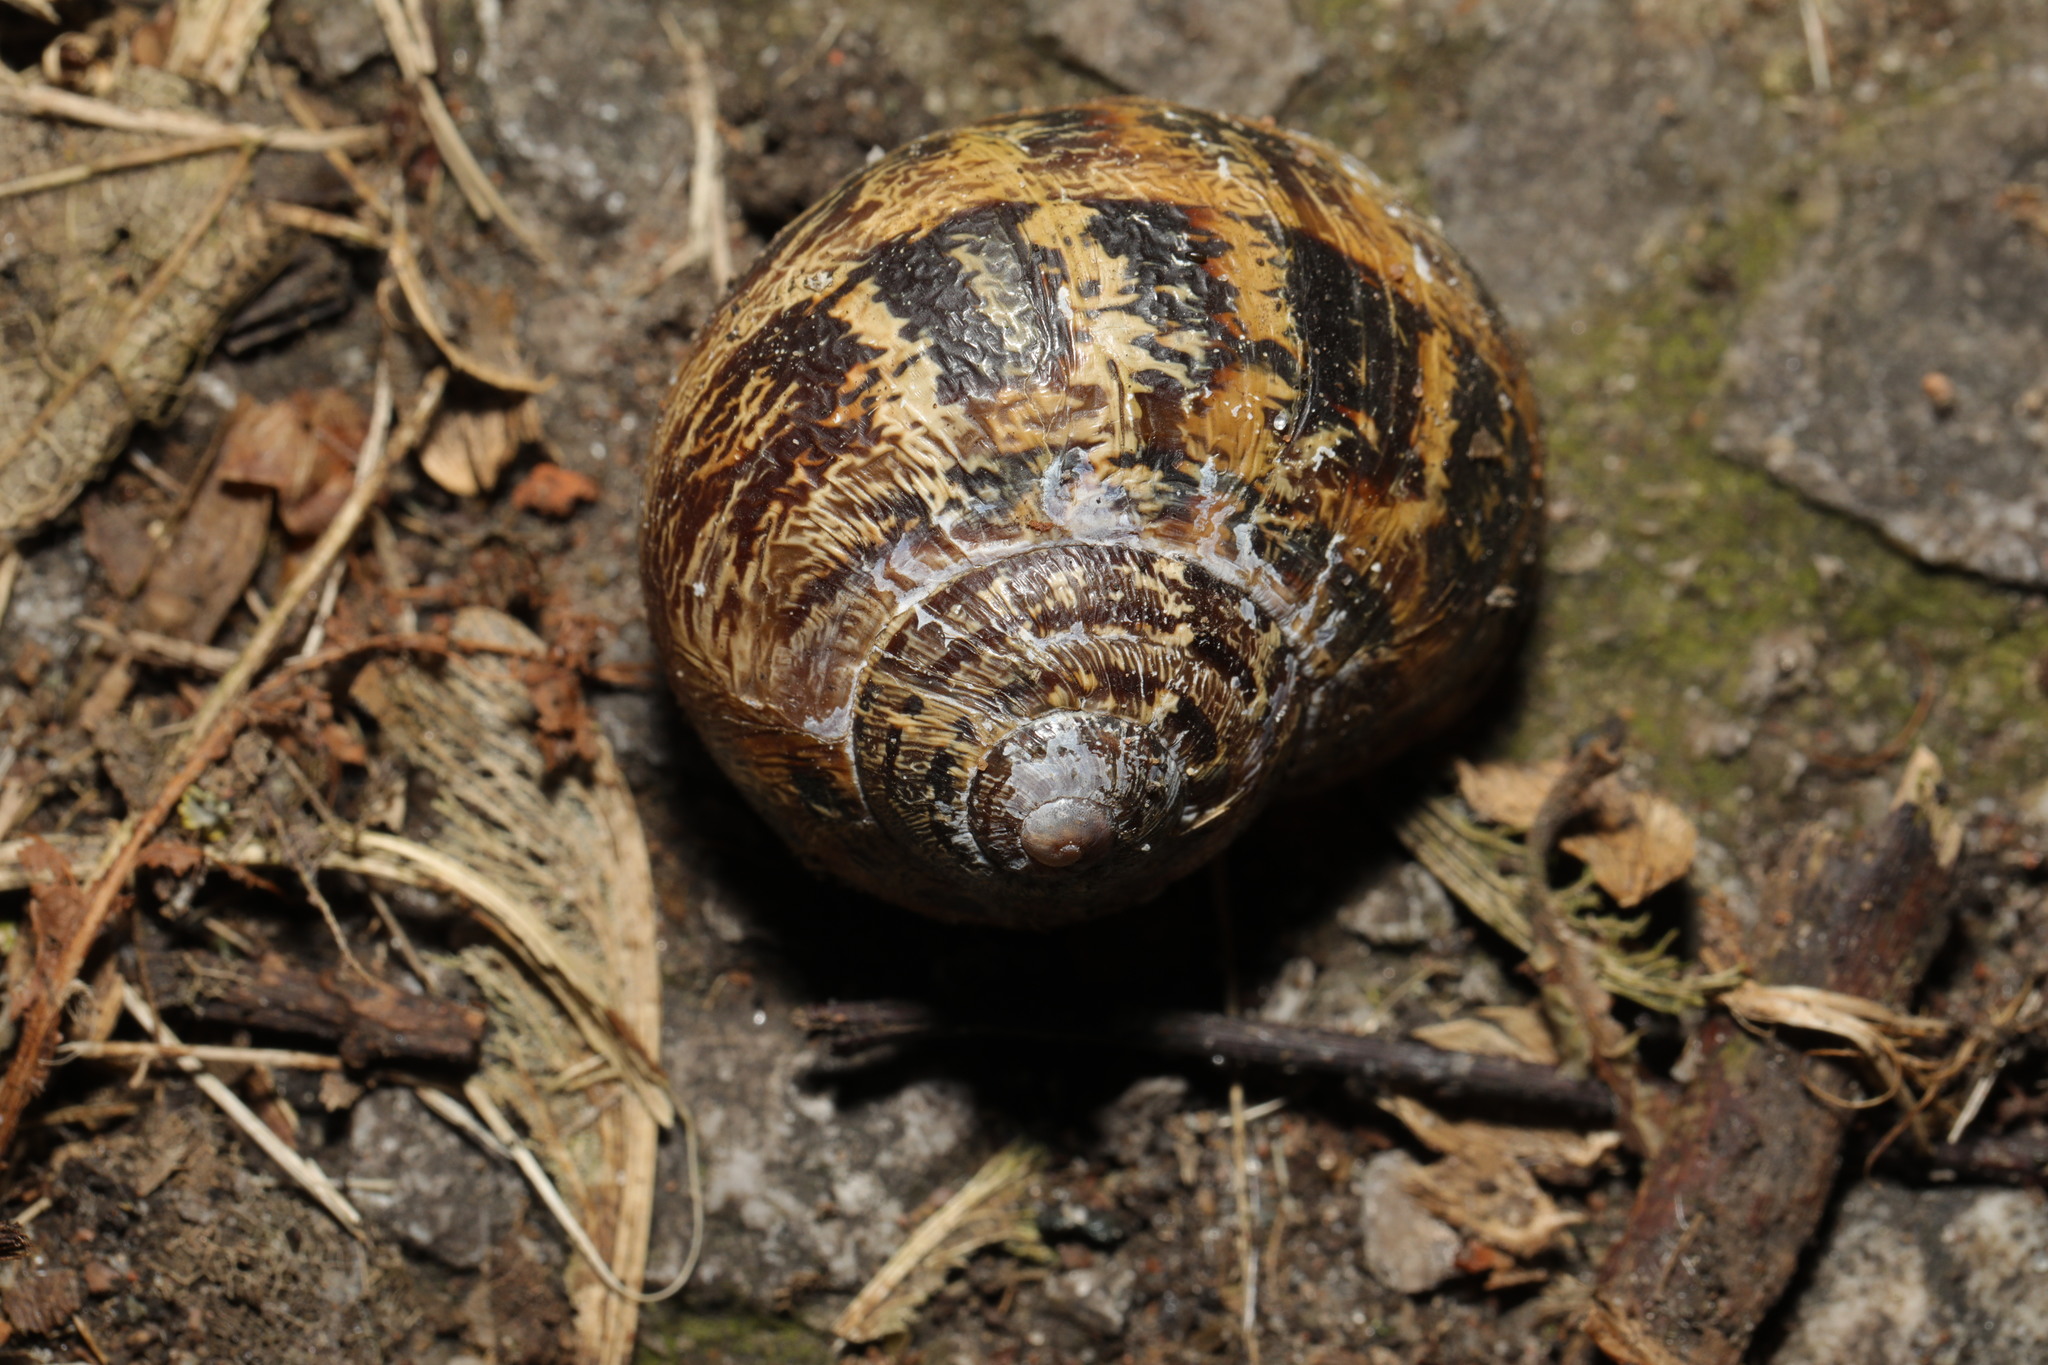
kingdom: Animalia
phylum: Mollusca
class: Gastropoda
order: Stylommatophora
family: Helicidae
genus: Cornu
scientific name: Cornu aspersum
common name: Brown garden snail
